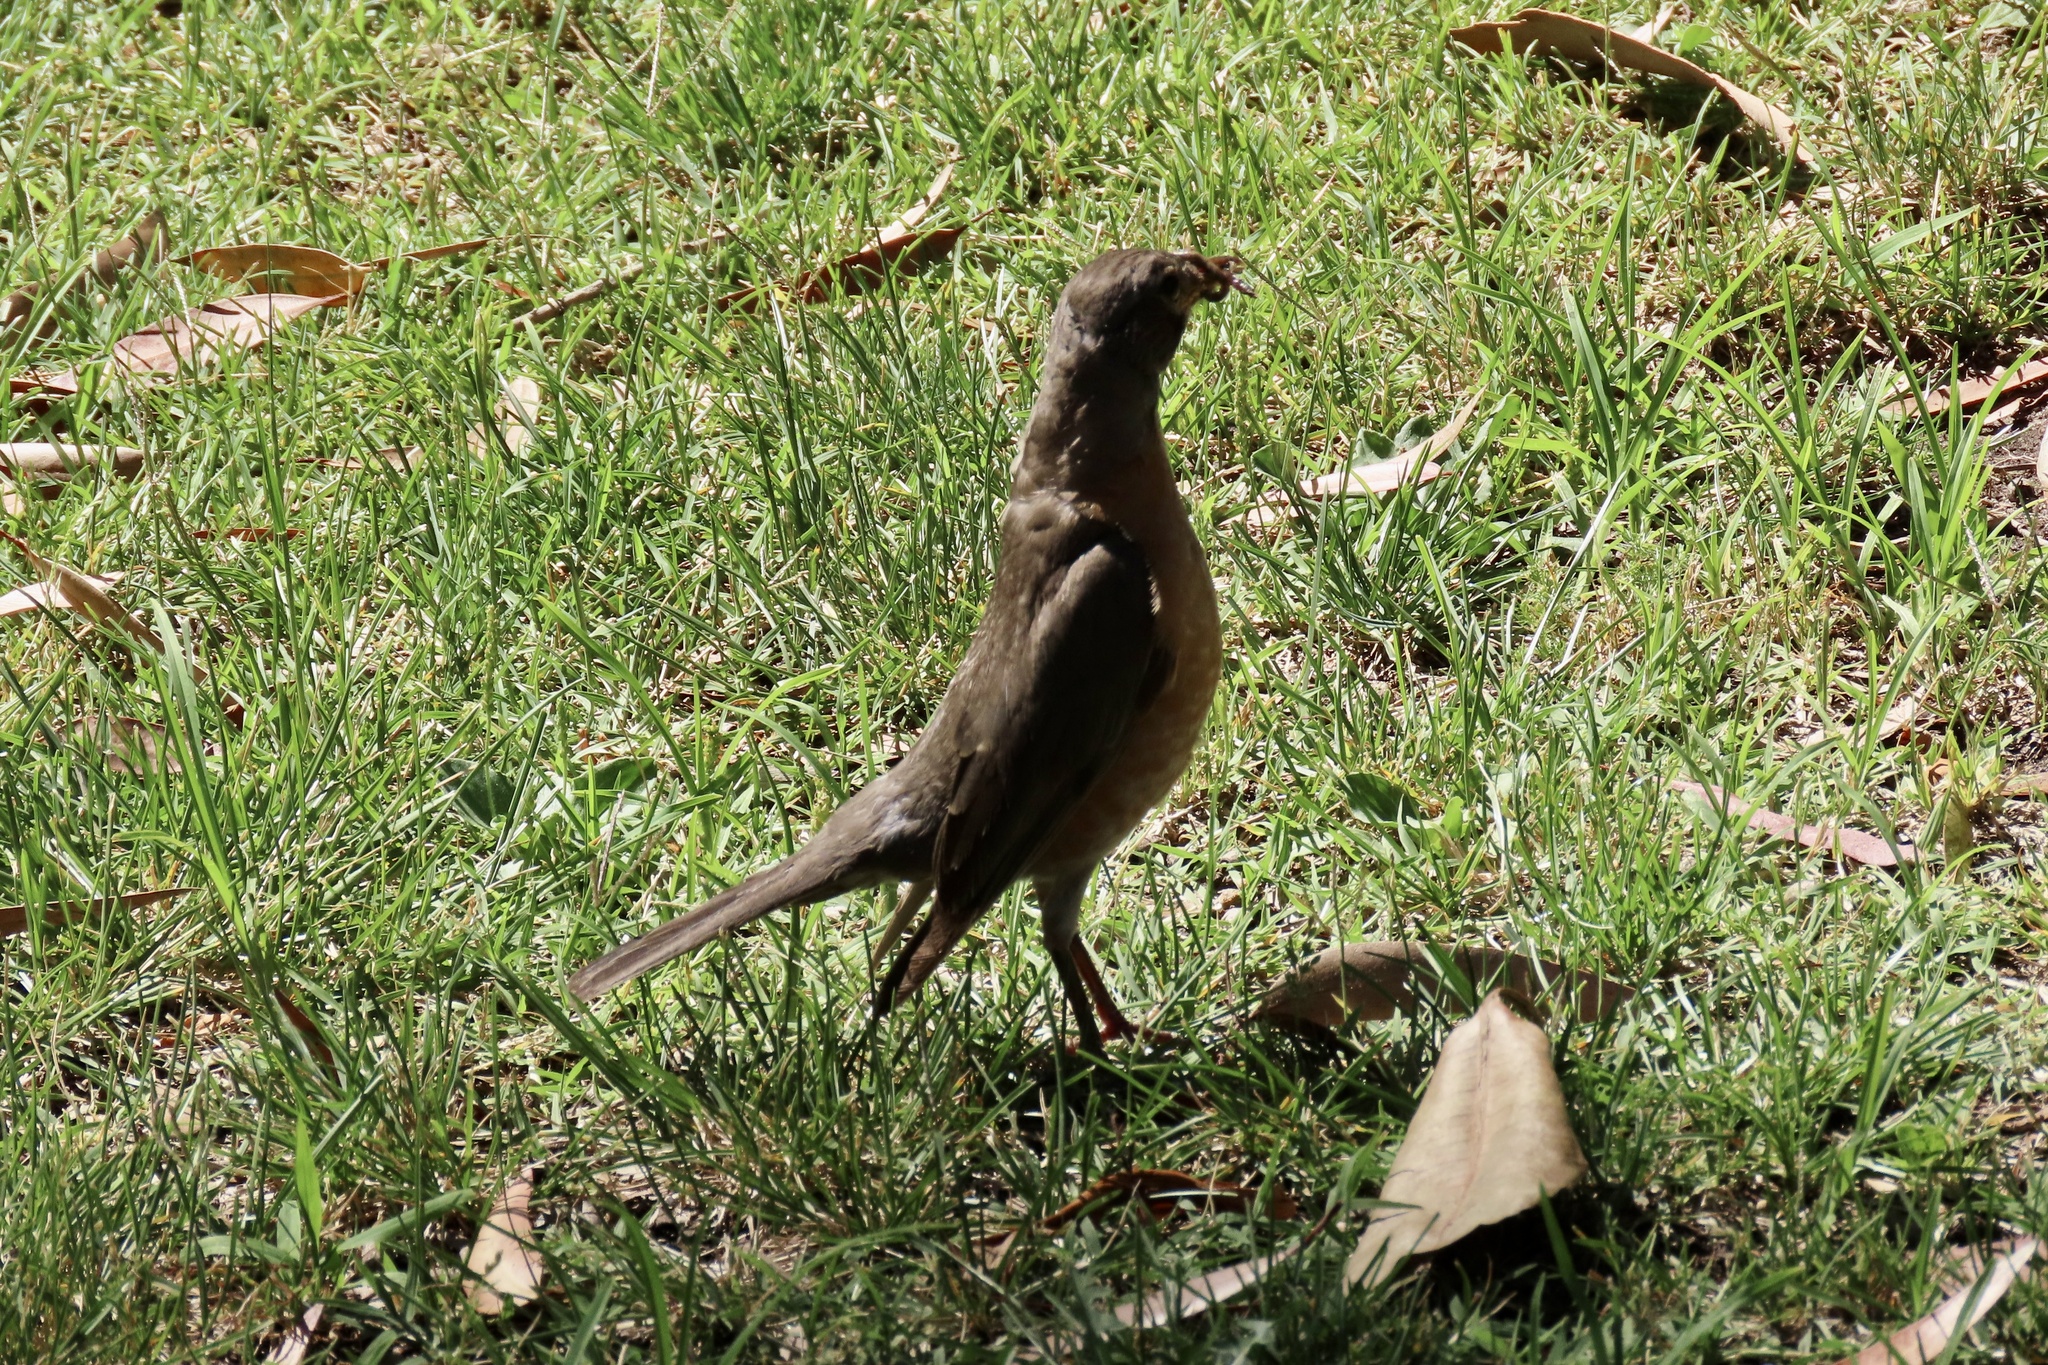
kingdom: Animalia
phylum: Chordata
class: Aves
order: Passeriformes
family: Turdidae
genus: Turdus
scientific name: Turdus migratorius
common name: American robin
